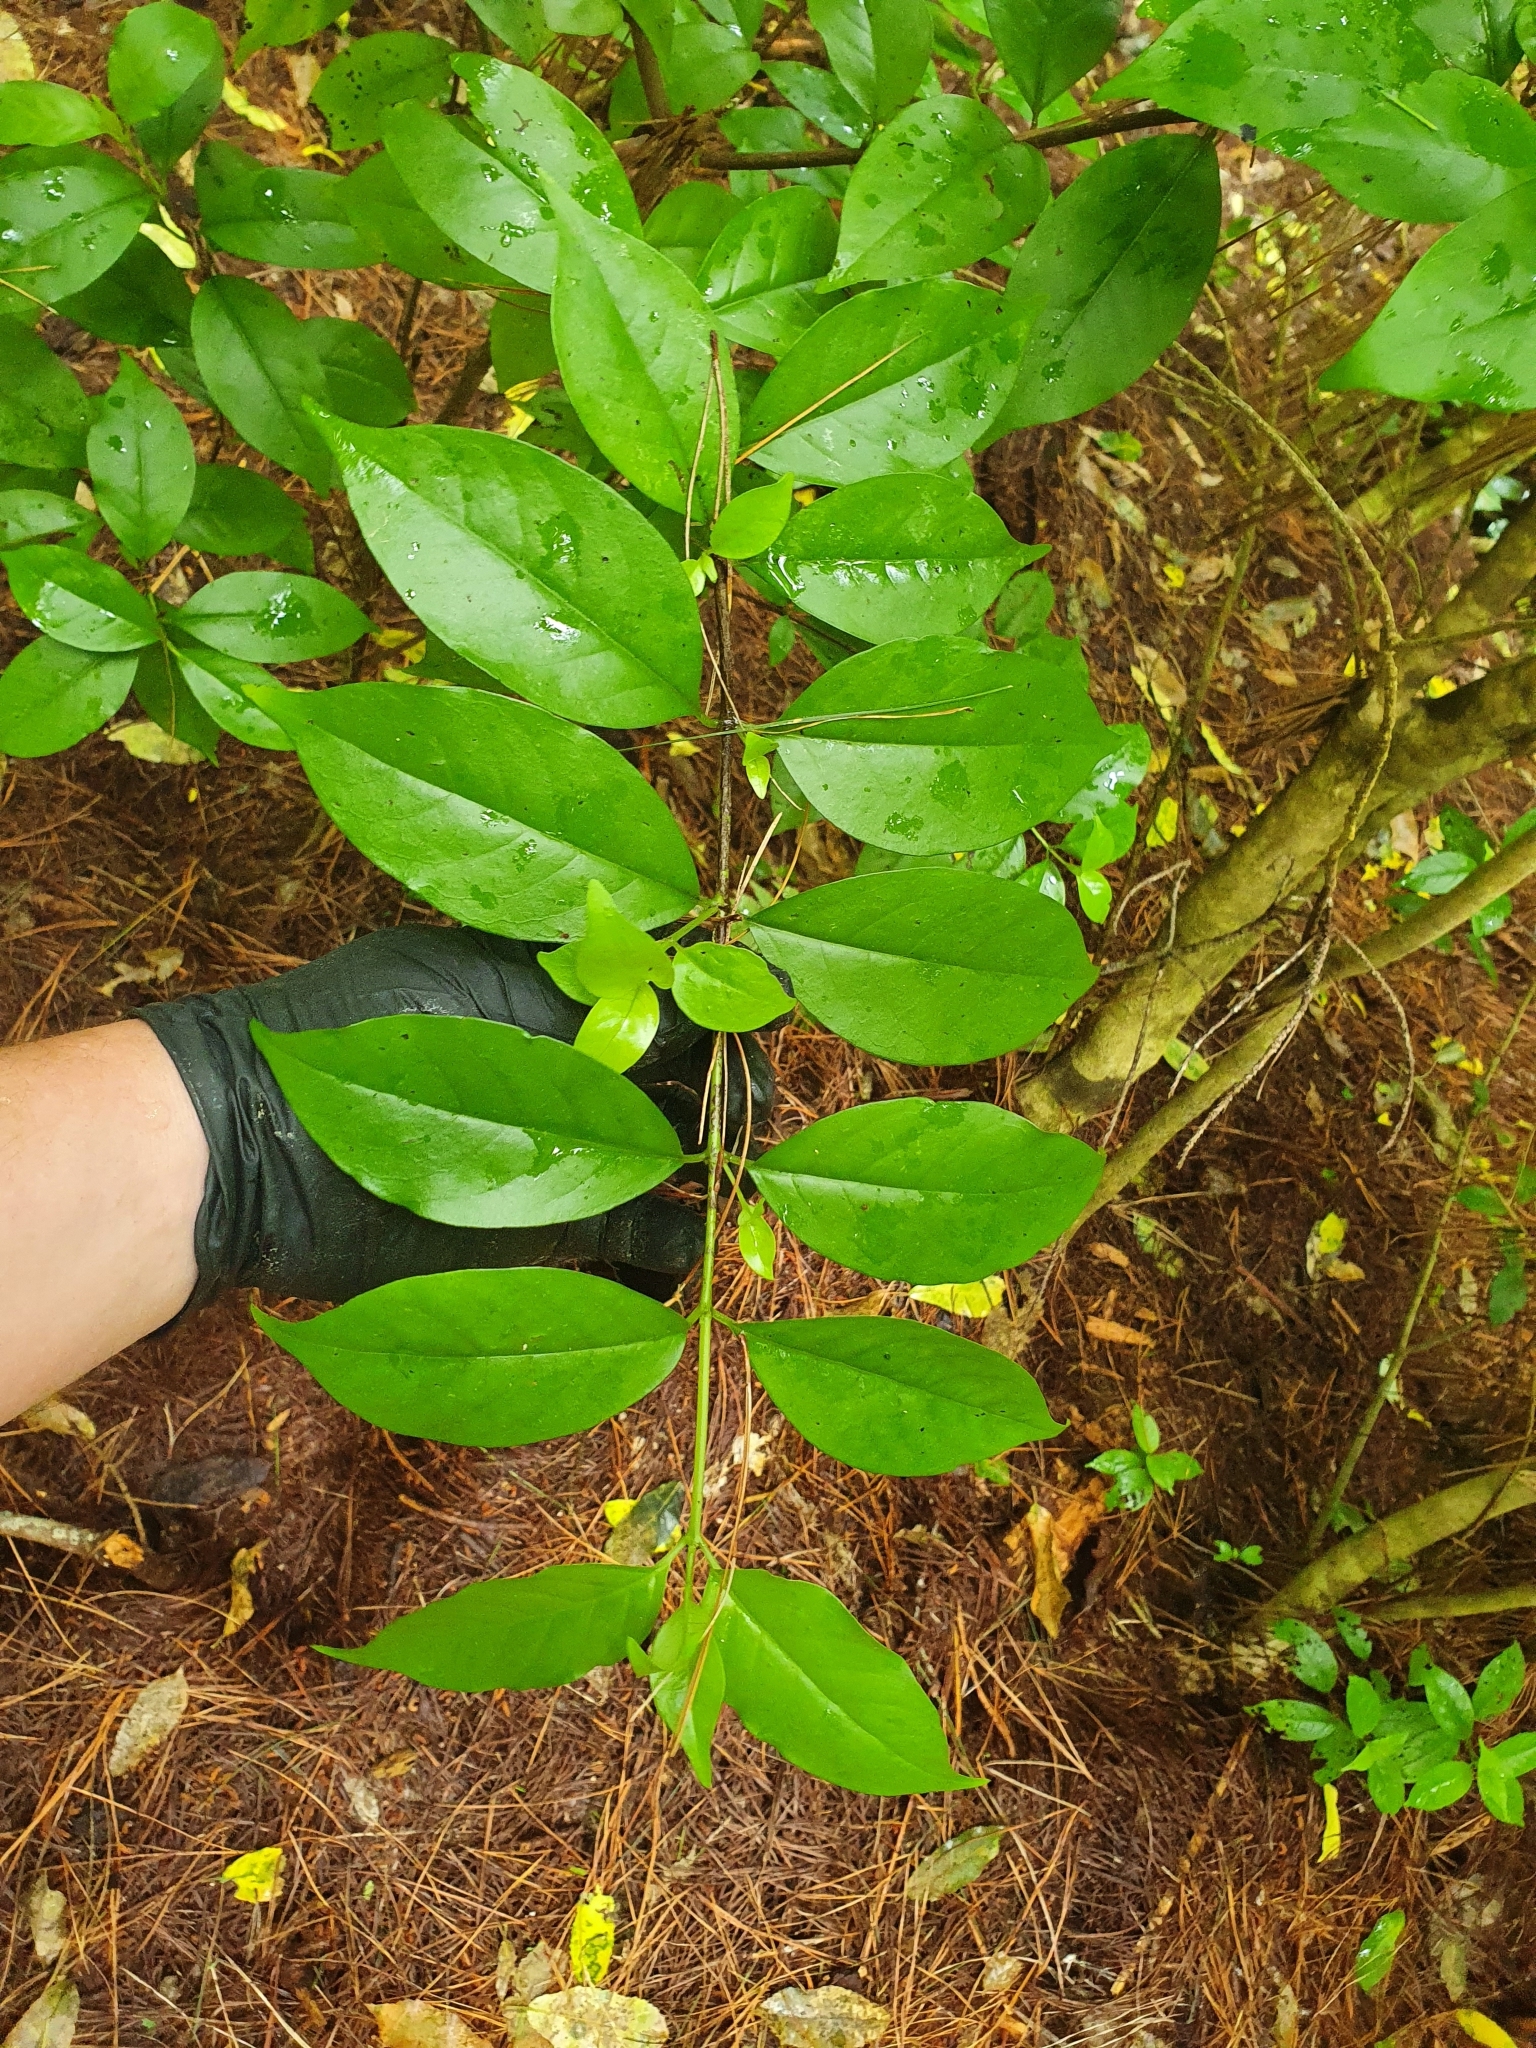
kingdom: Plantae
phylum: Tracheophyta
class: Magnoliopsida
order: Gentianales
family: Loganiaceae
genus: Geniostoma
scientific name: Geniostoma ligustrifolium
